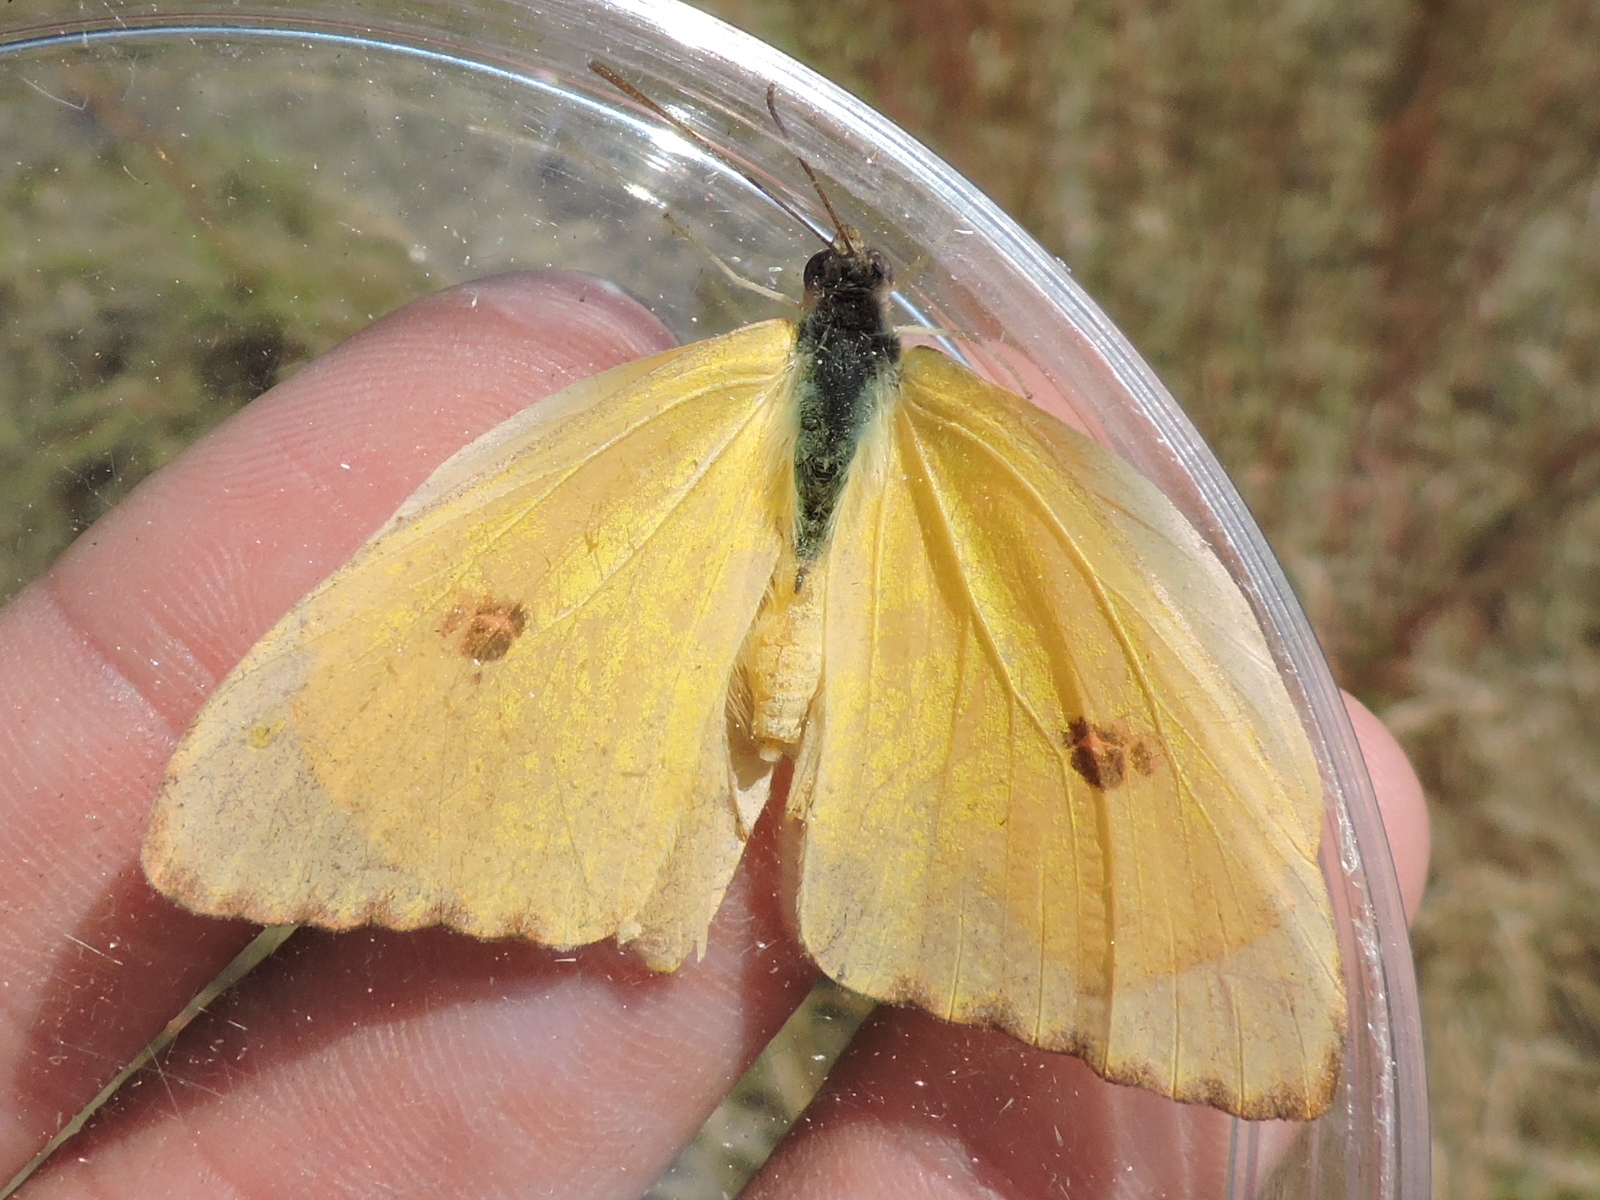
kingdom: Animalia
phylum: Arthropoda
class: Insecta
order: Lepidoptera
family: Pieridae
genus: Phoebis
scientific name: Phoebis sennae
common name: Cloudless sulphur
